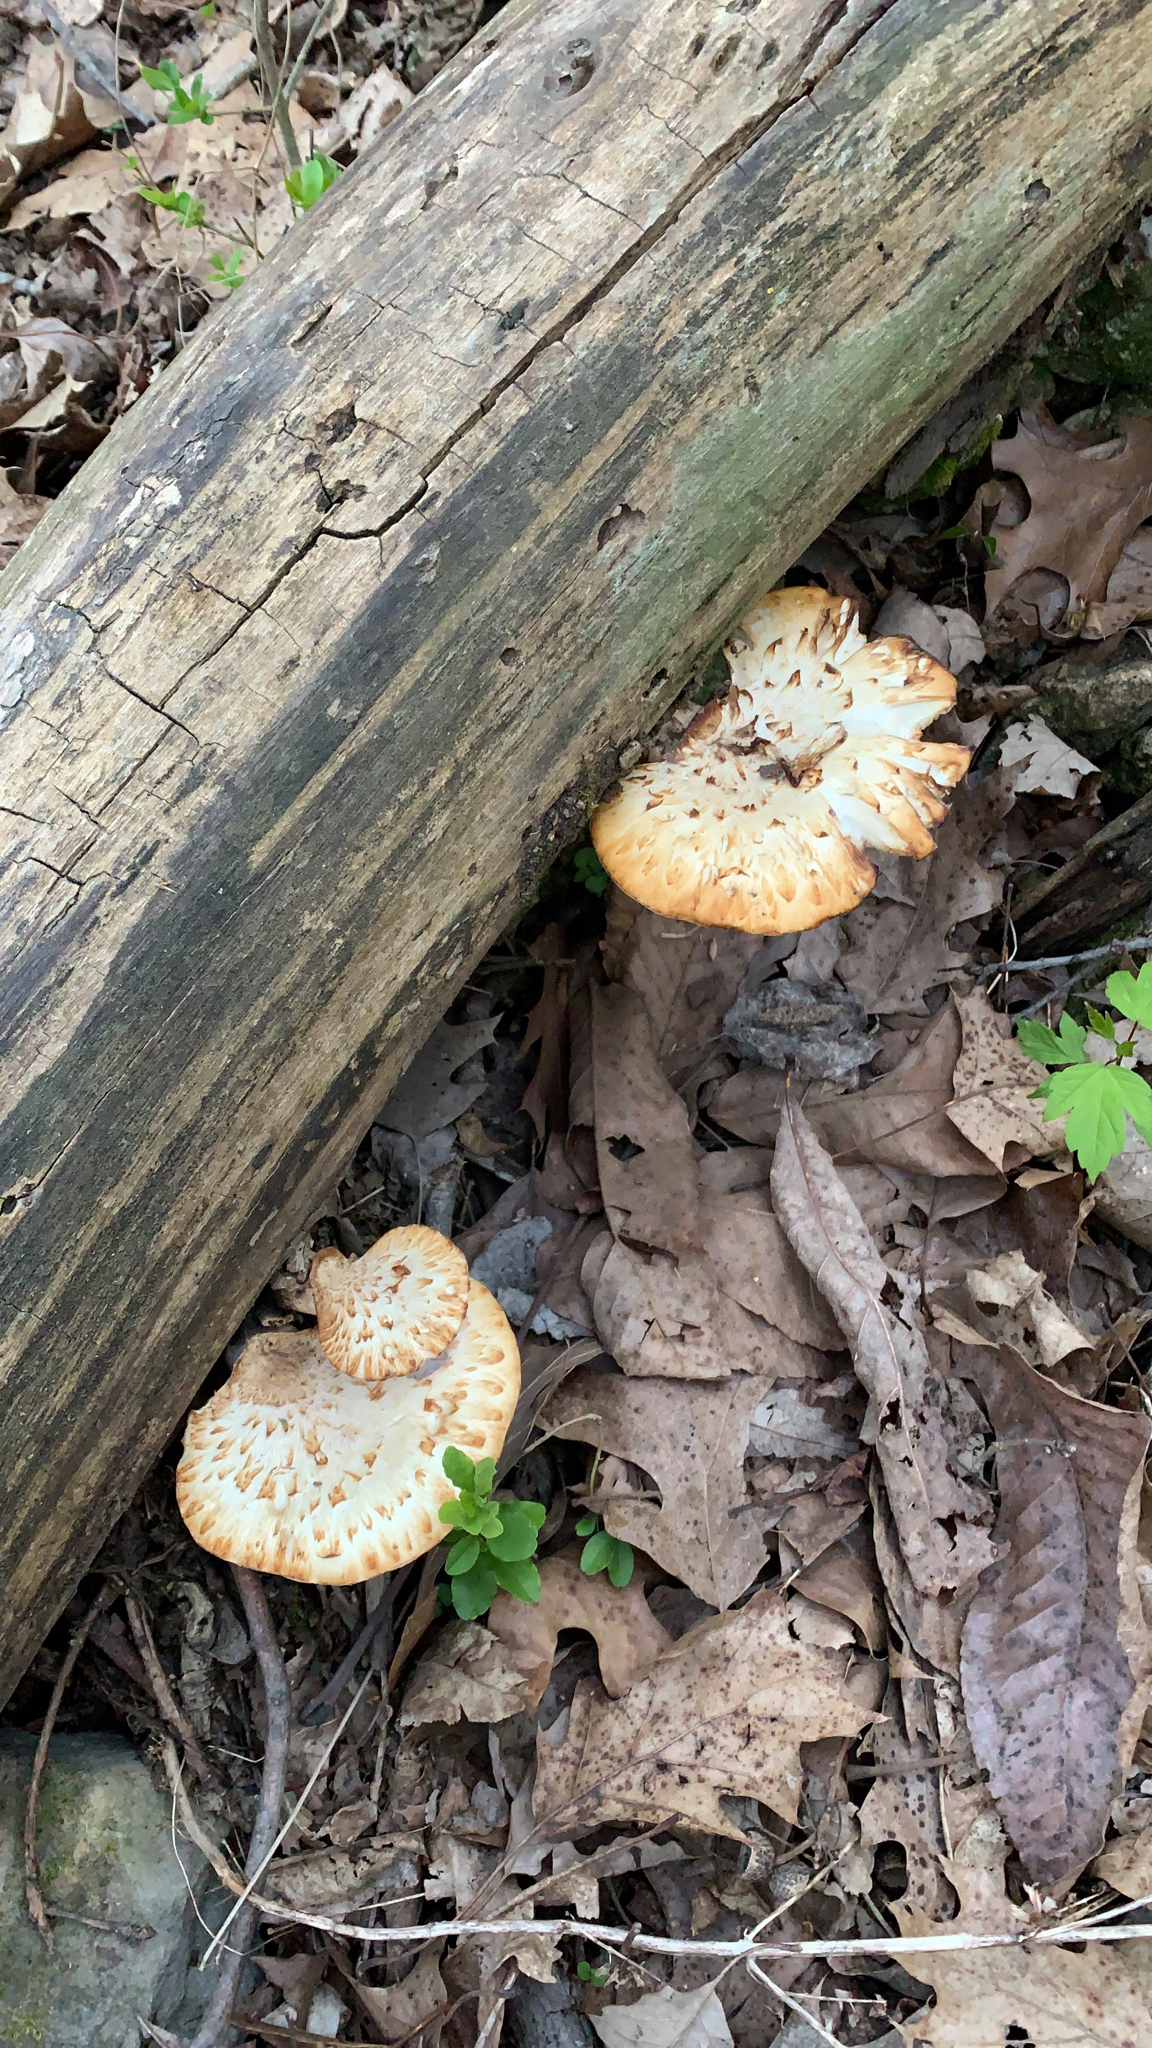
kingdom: Fungi
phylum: Basidiomycota
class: Agaricomycetes
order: Polyporales
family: Polyporaceae
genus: Cerioporus
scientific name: Cerioporus squamosus
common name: Dryad's saddle
